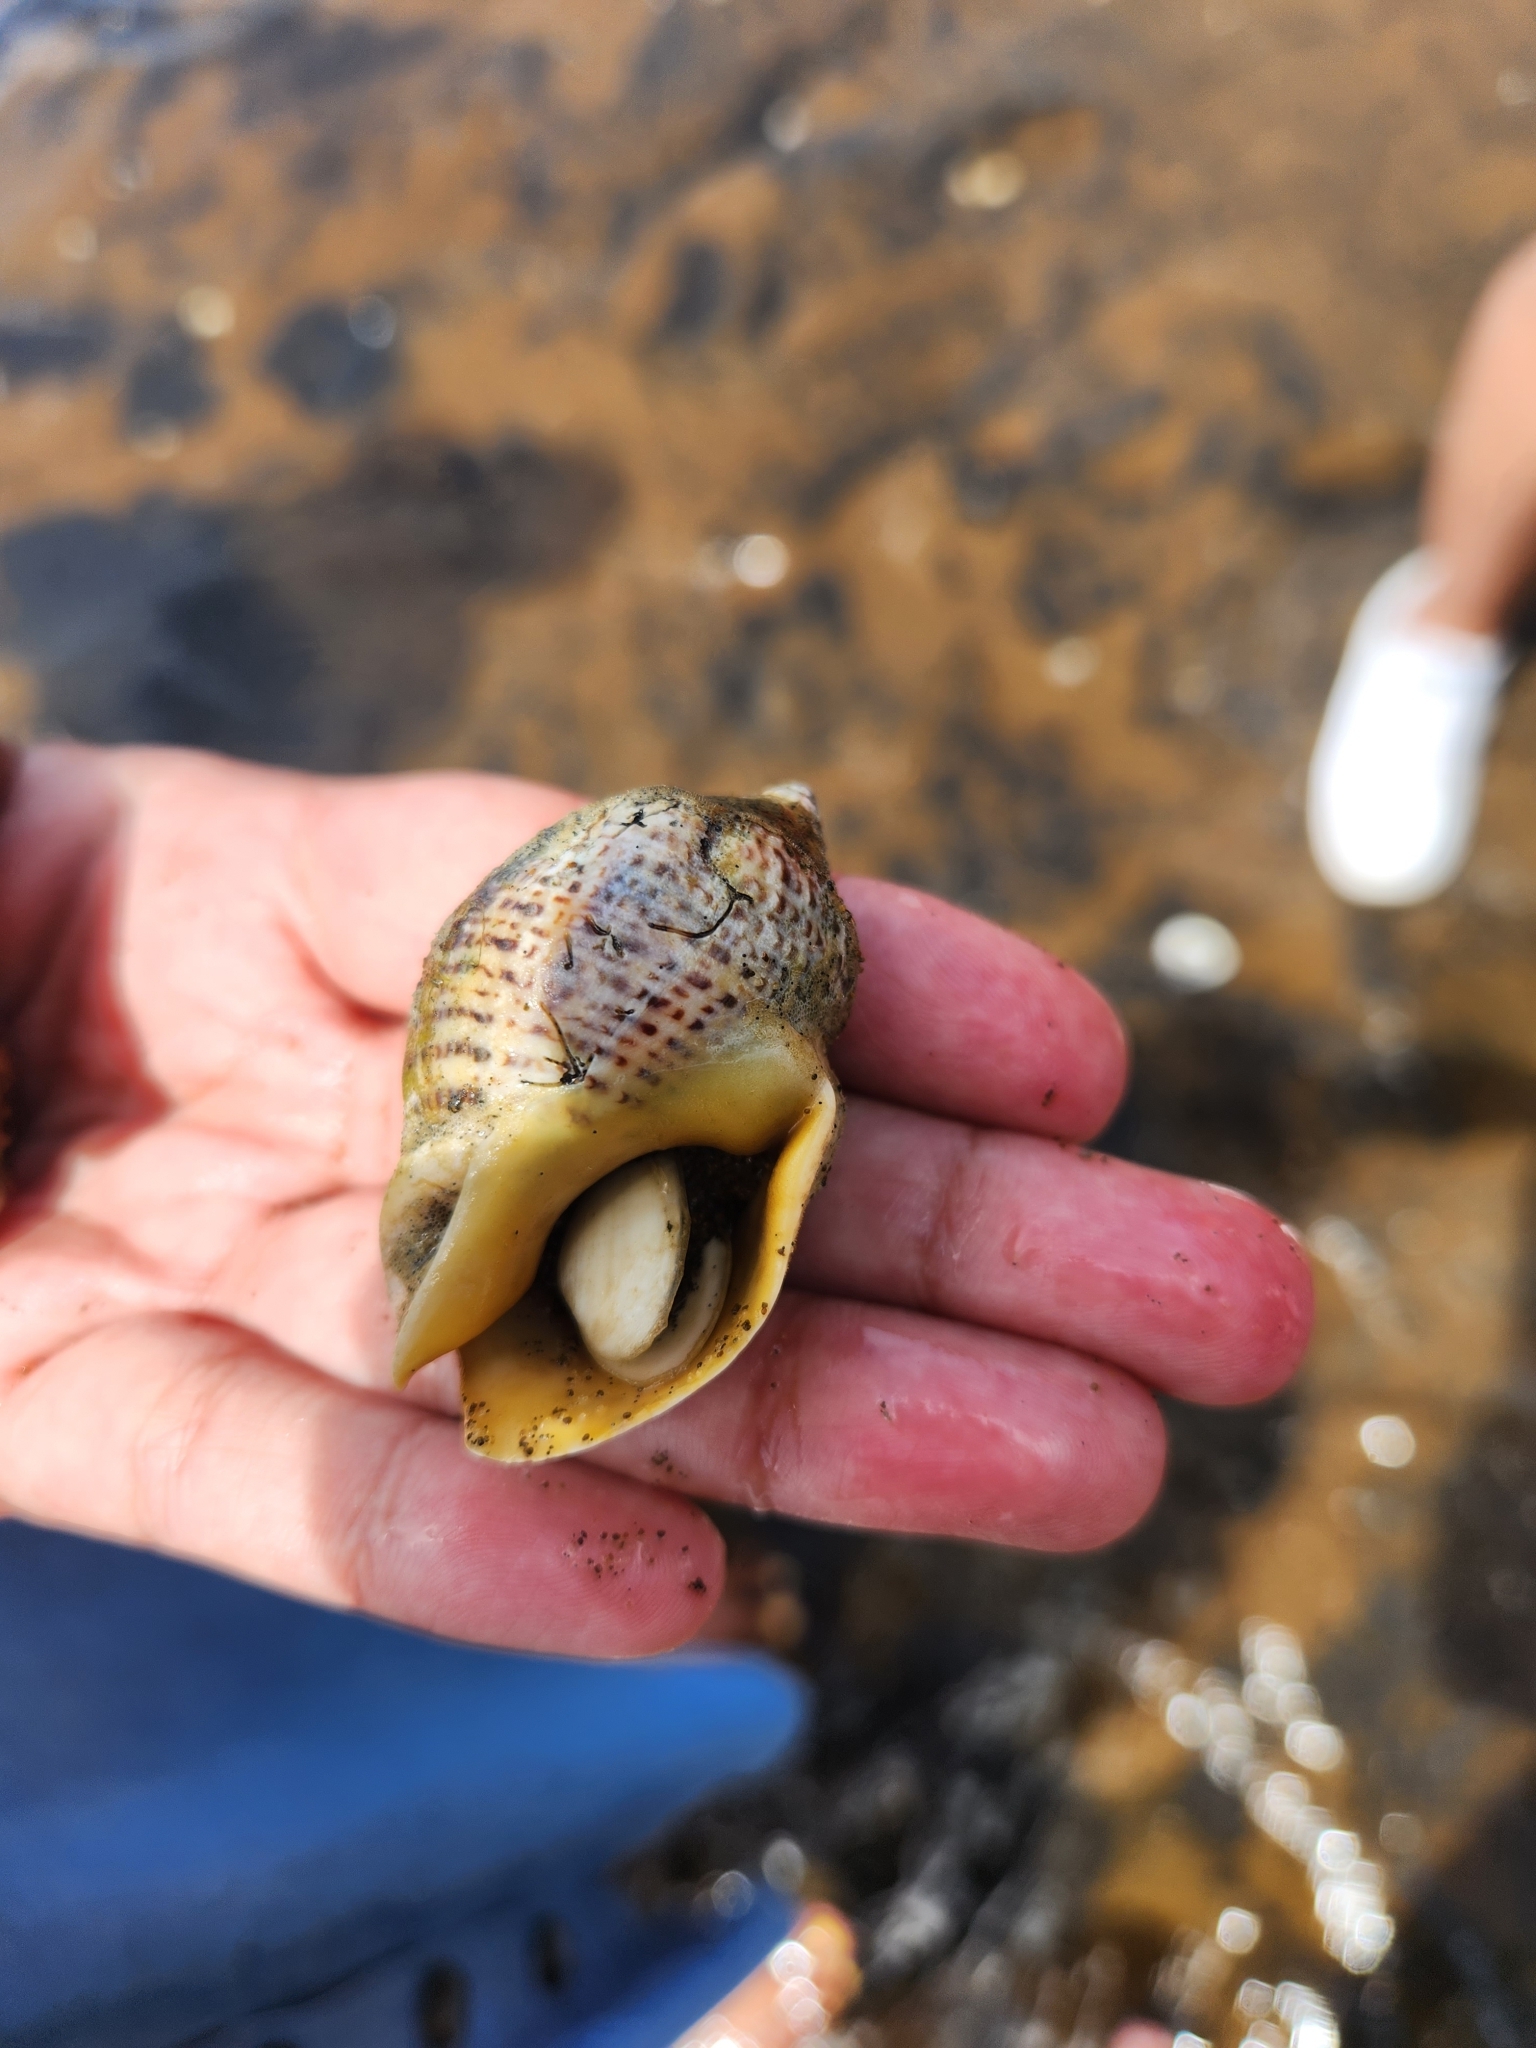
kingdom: Animalia
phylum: Mollusca
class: Gastropoda
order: Neogastropoda
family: Cominellidae
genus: Cominella
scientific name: Cominella adspersa
